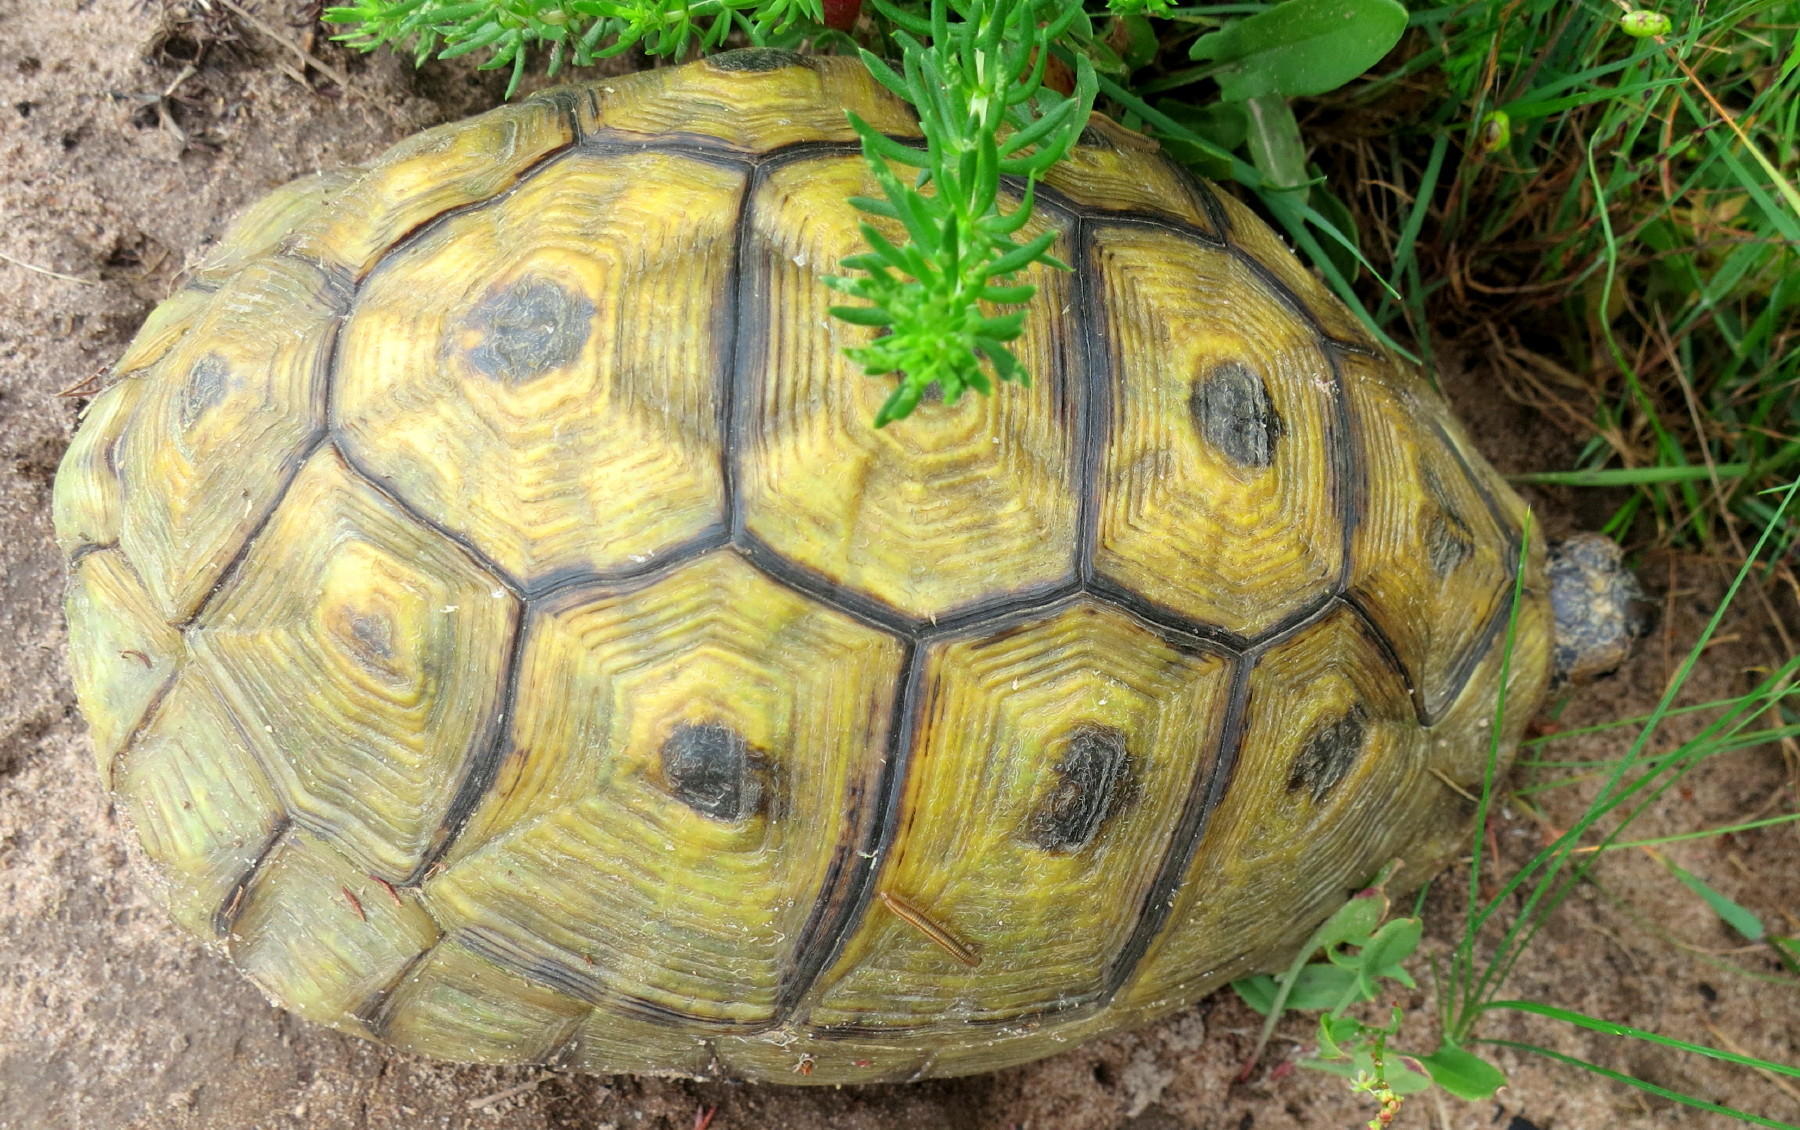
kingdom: Animalia
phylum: Chordata
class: Testudines
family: Testudinidae
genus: Chersina
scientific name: Chersina angulata
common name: South african bowsprit tortoise
